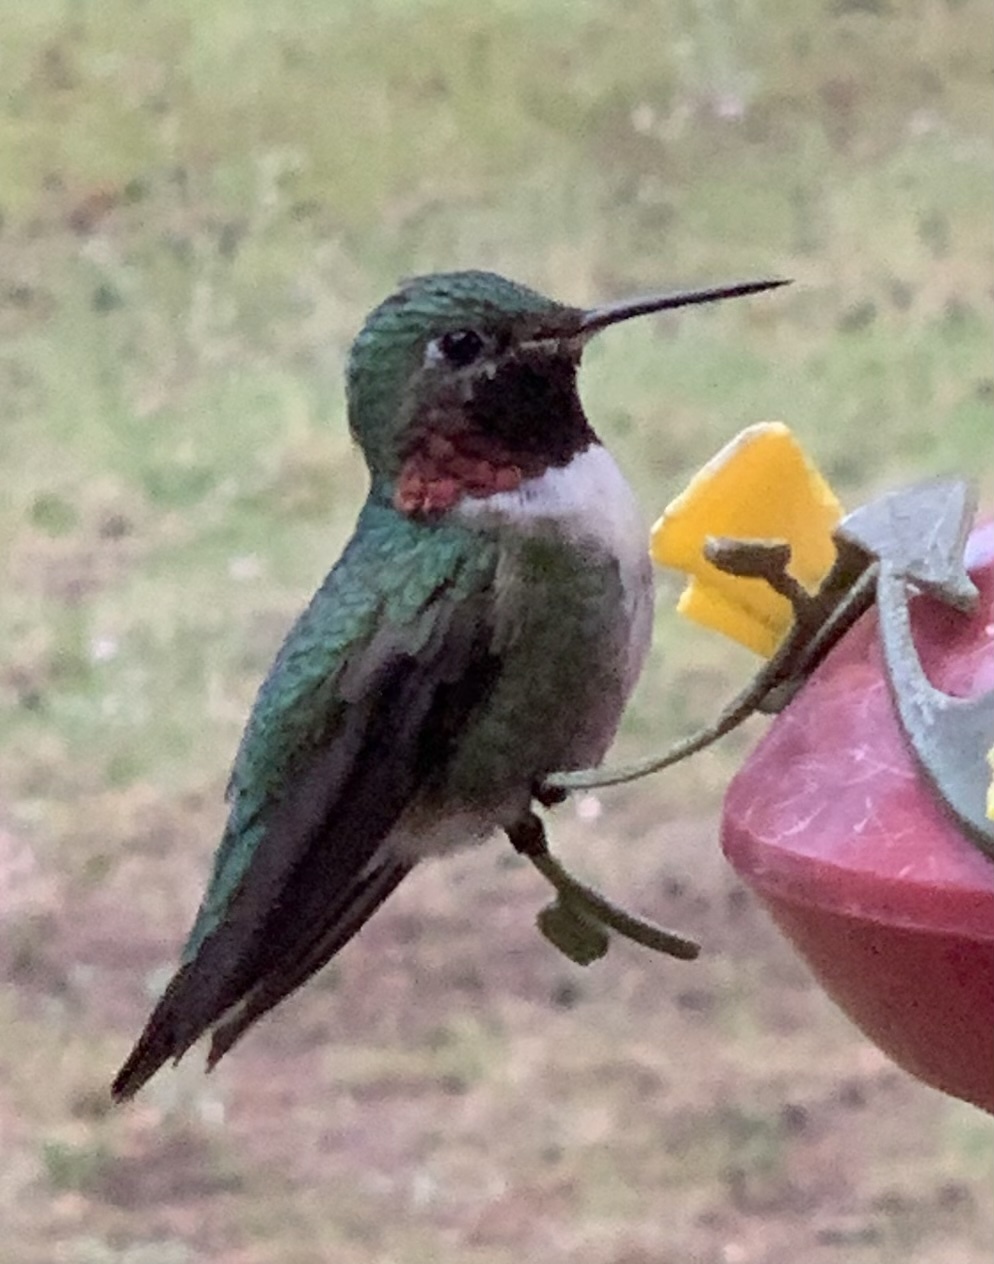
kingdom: Animalia
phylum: Chordata
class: Aves
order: Apodiformes
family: Trochilidae
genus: Selasphorus
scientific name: Selasphorus platycercus
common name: Broad-tailed hummingbird
